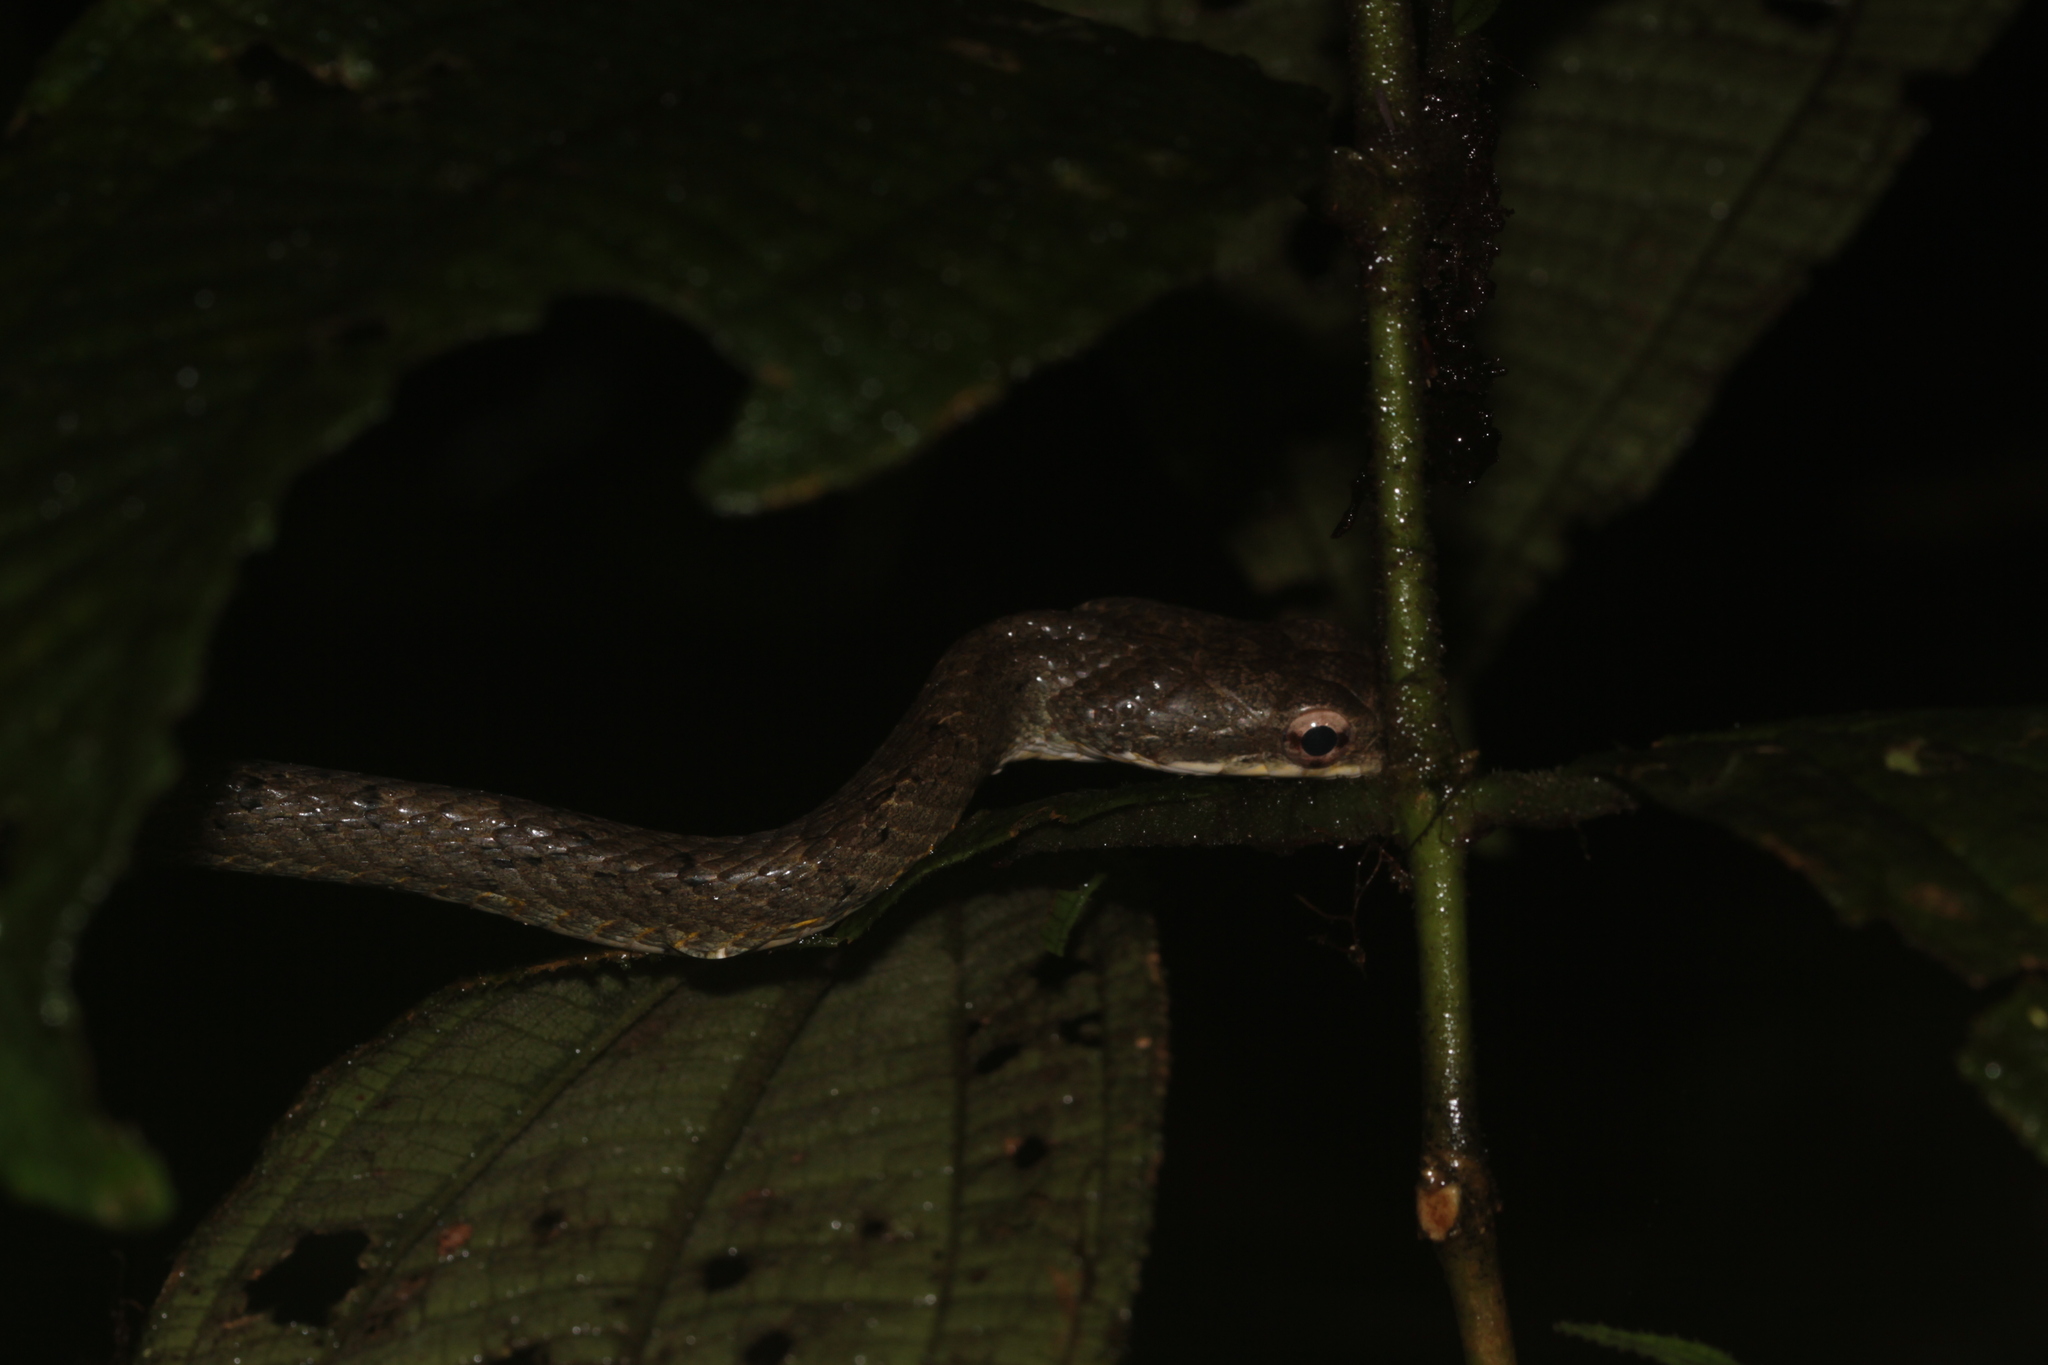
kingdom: Animalia
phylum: Chordata
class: Squamata
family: Colubridae
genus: Chironius
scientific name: Chironius quadricarinatus
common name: Central sipo
